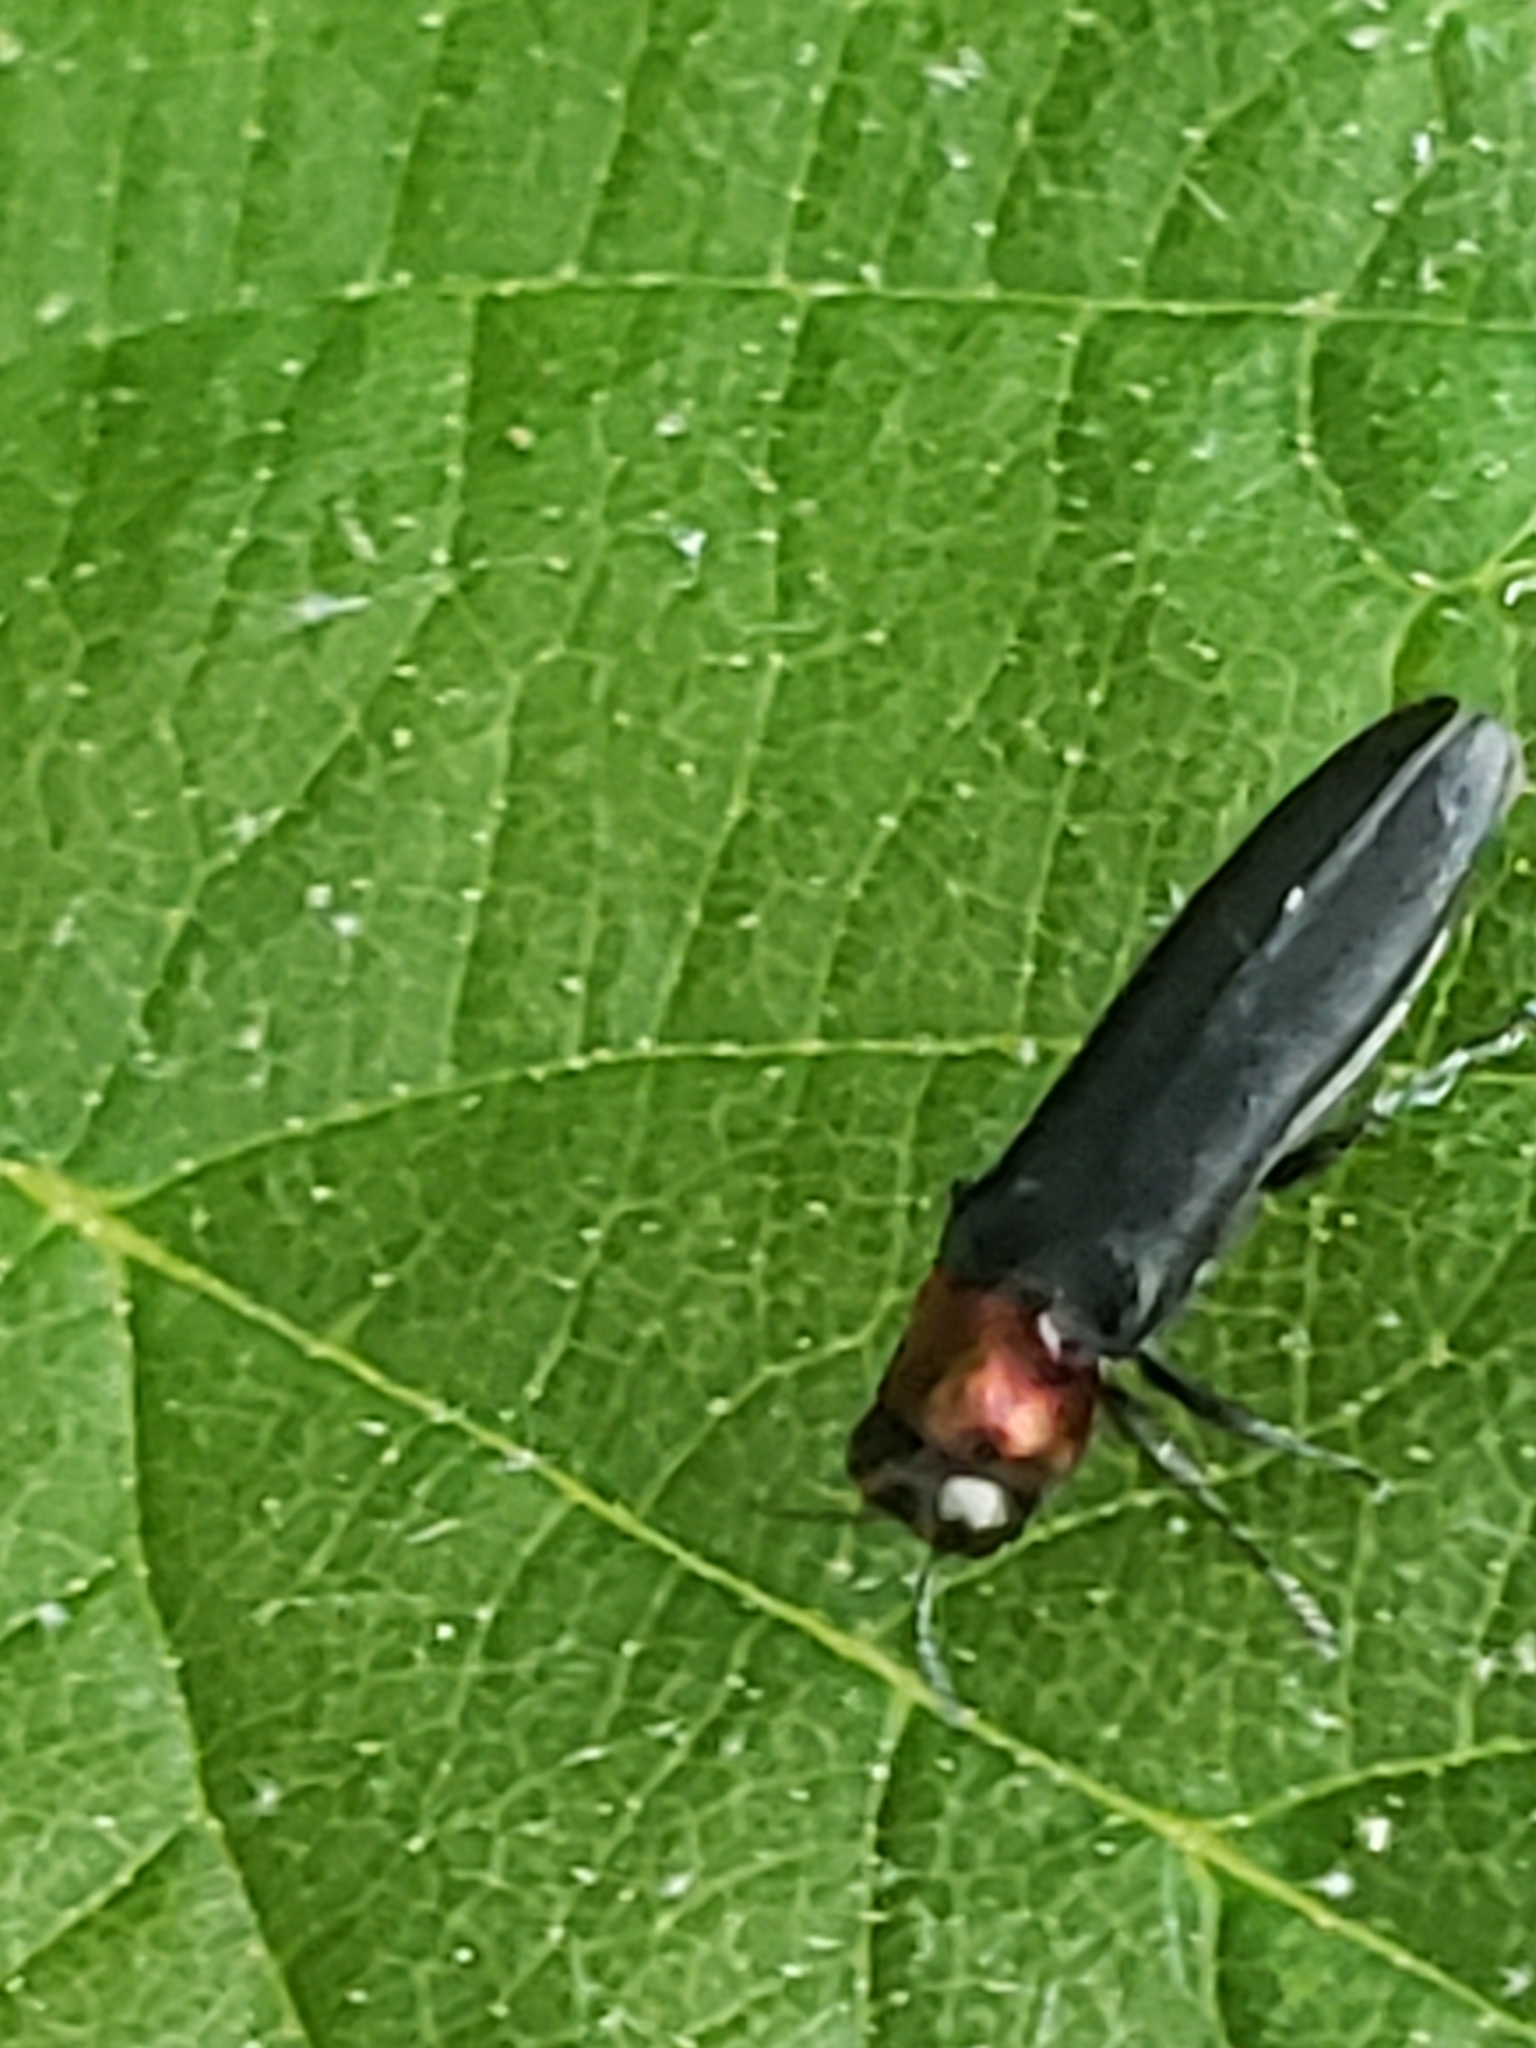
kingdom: Animalia
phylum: Arthropoda
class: Insecta
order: Coleoptera
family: Buprestidae
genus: Agrilus
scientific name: Agrilus ruficollis
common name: Red-necked cane borer beetle
